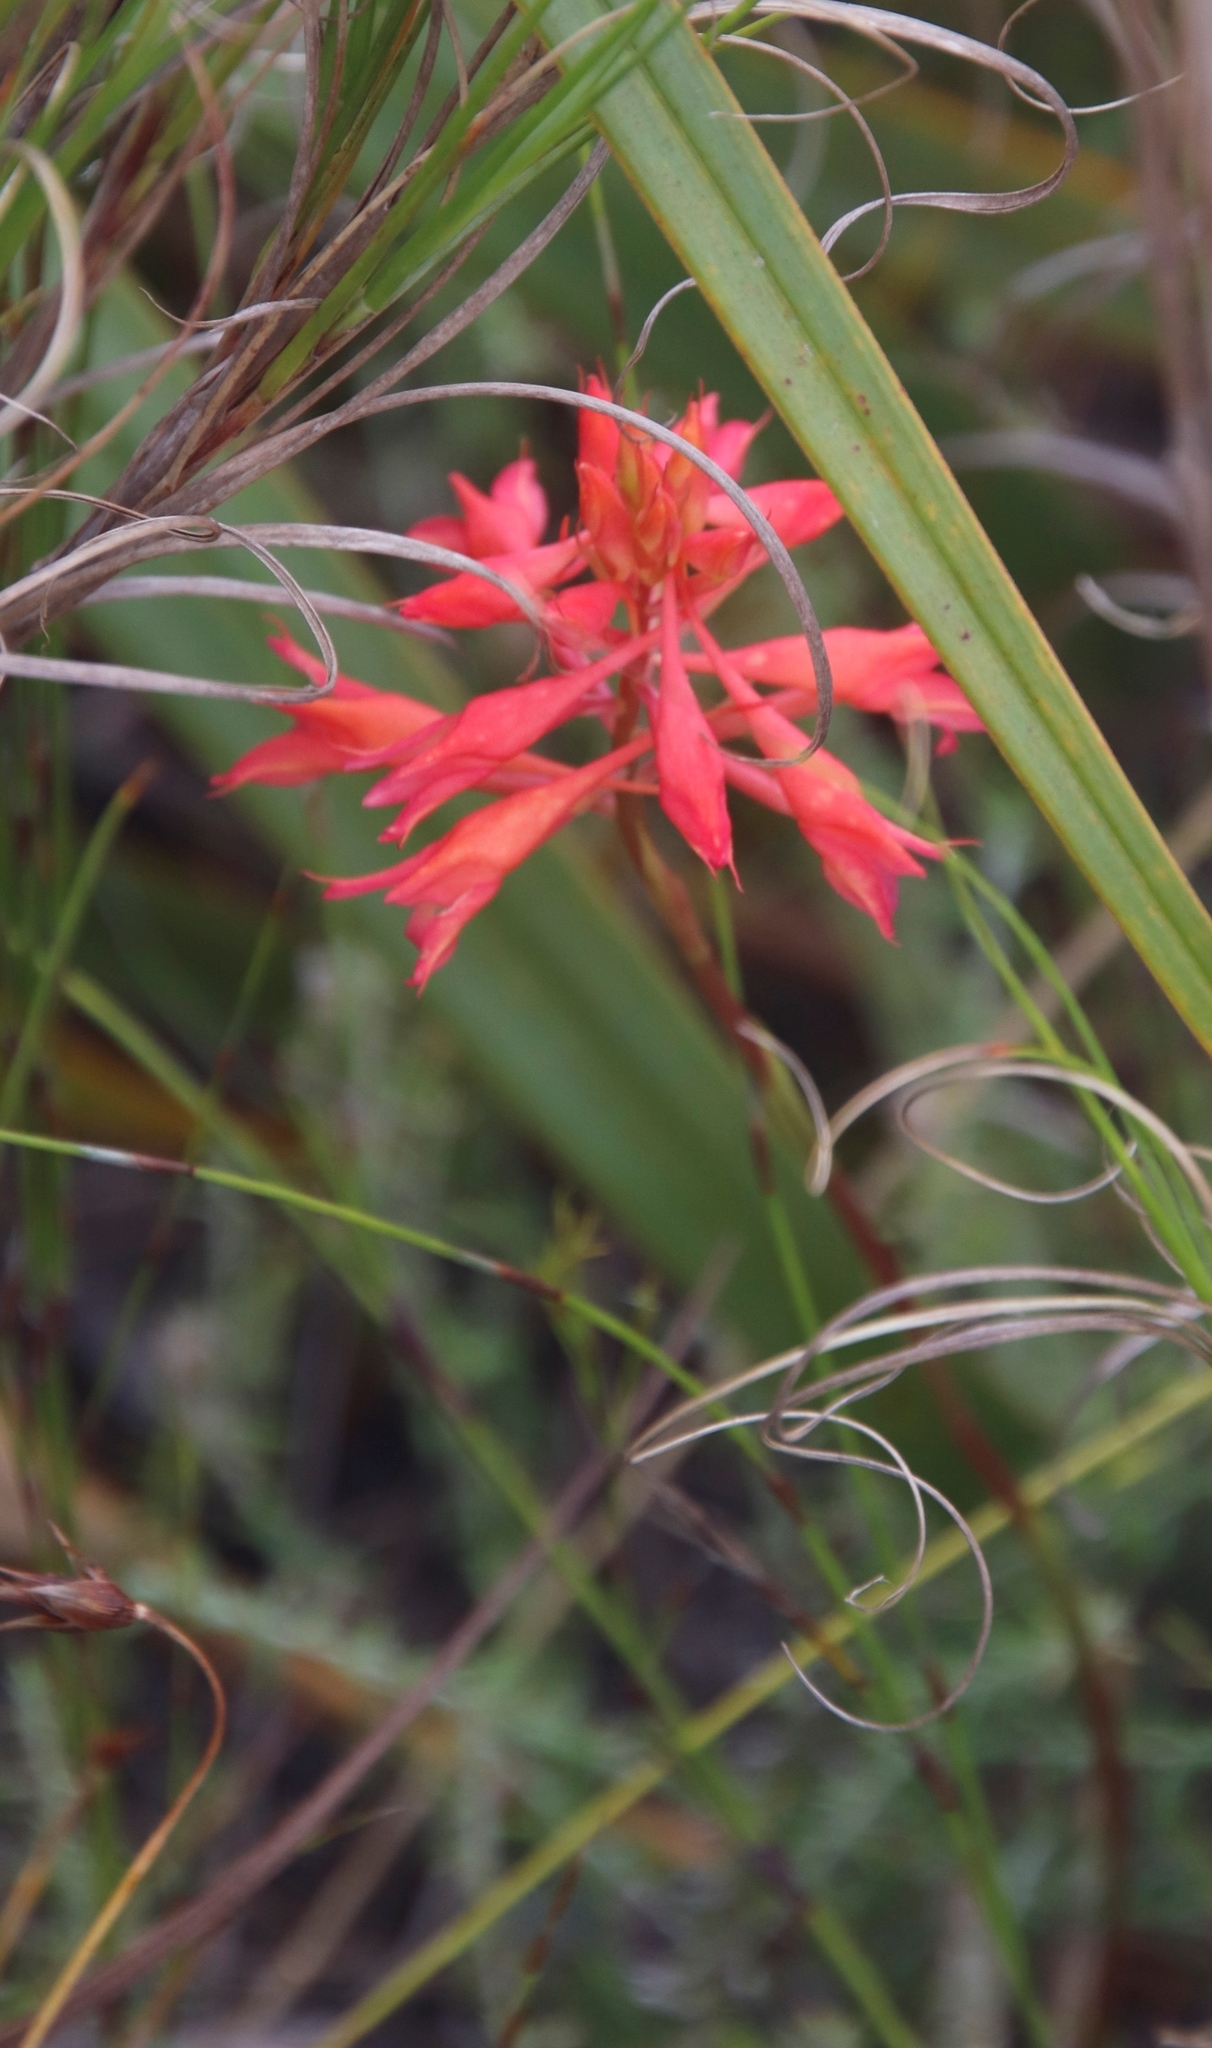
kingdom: Plantae
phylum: Tracheophyta
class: Liliopsida
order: Asparagales
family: Orchidaceae
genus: Disa
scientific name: Disa ferruginea
